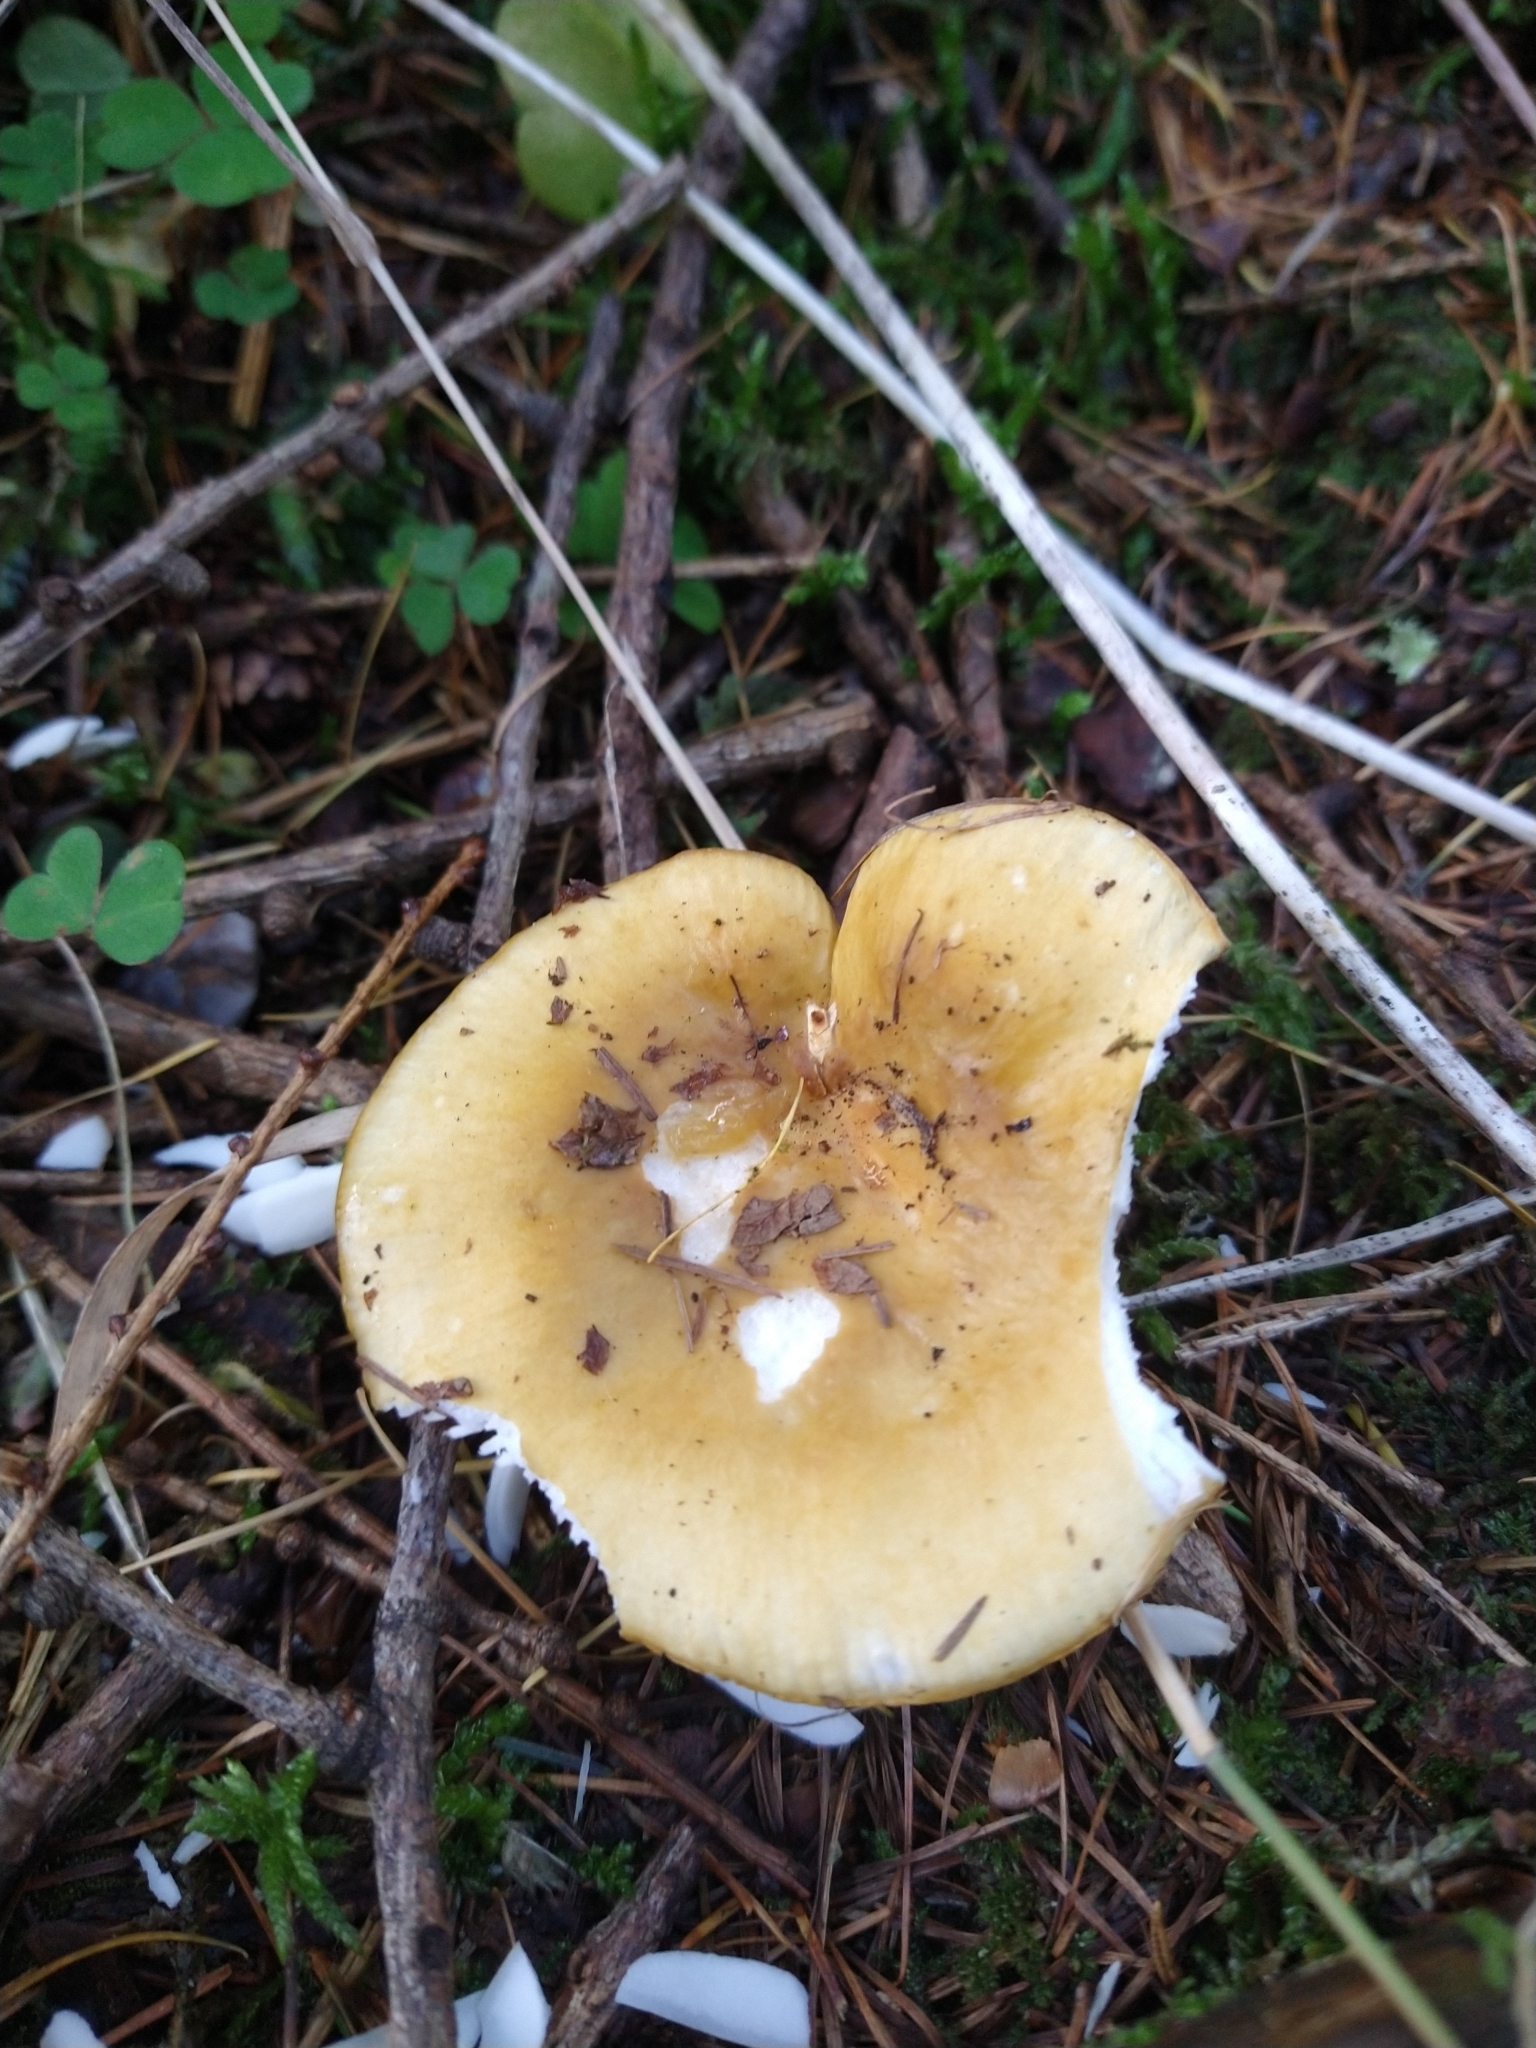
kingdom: Fungi
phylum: Basidiomycota
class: Agaricomycetes
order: Russulales
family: Russulaceae
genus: Russula
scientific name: Russula ochroleuca
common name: Common yellow russula
